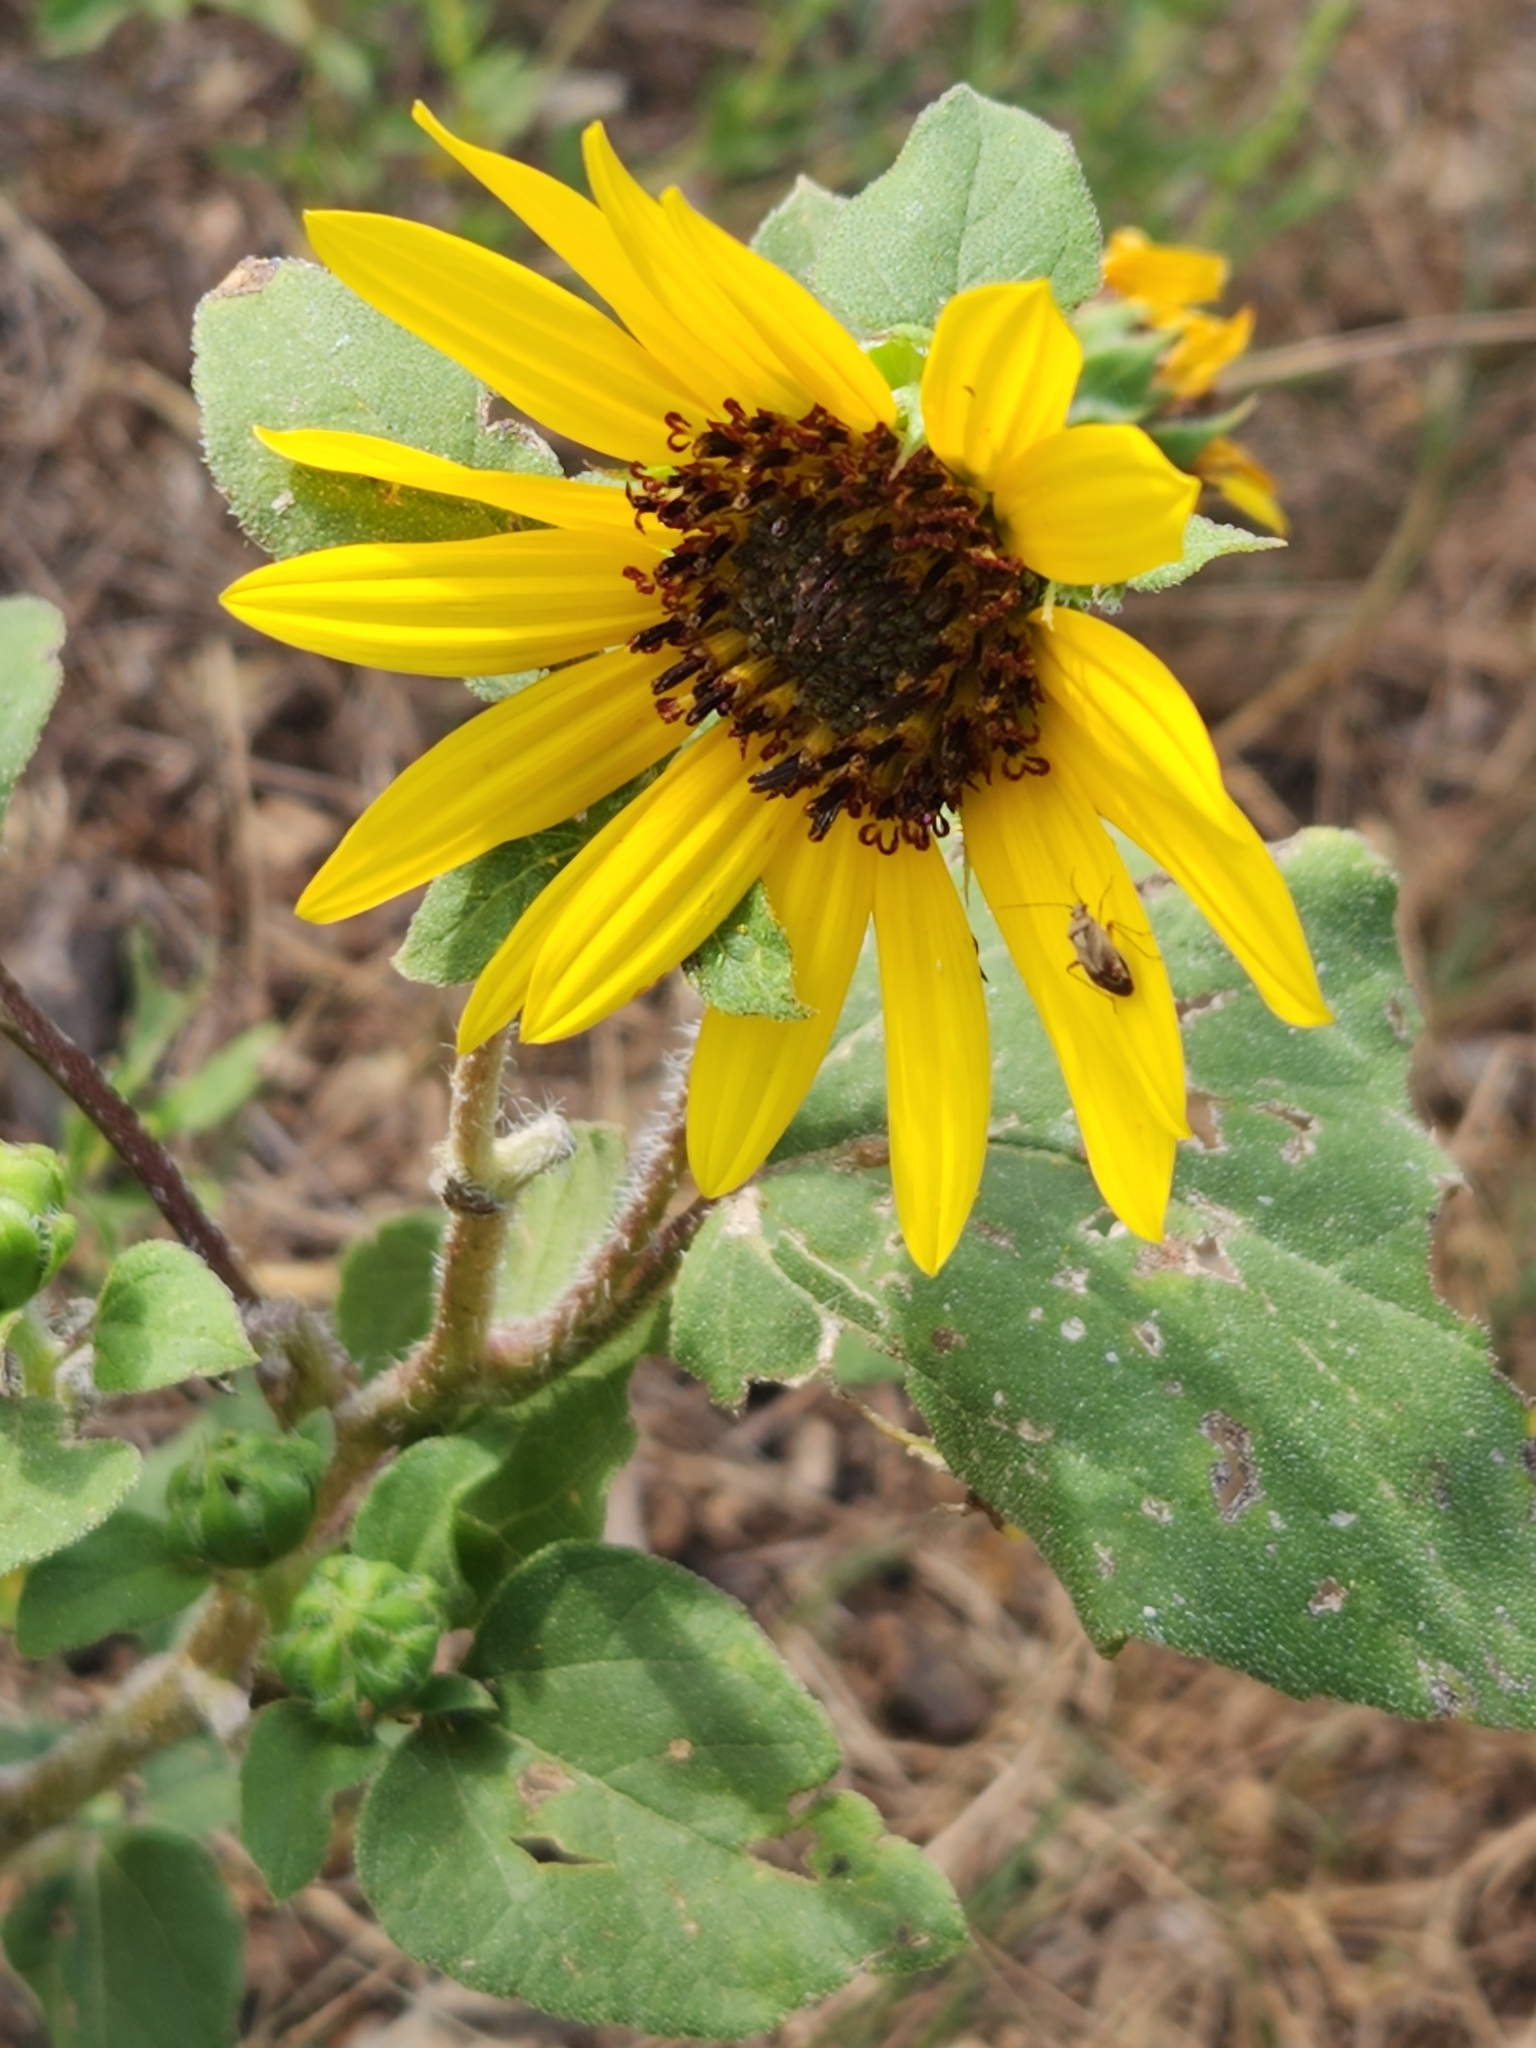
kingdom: Plantae
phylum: Tracheophyta
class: Magnoliopsida
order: Asterales
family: Asteraceae
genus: Helianthus
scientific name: Helianthus annuus
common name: Sunflower
